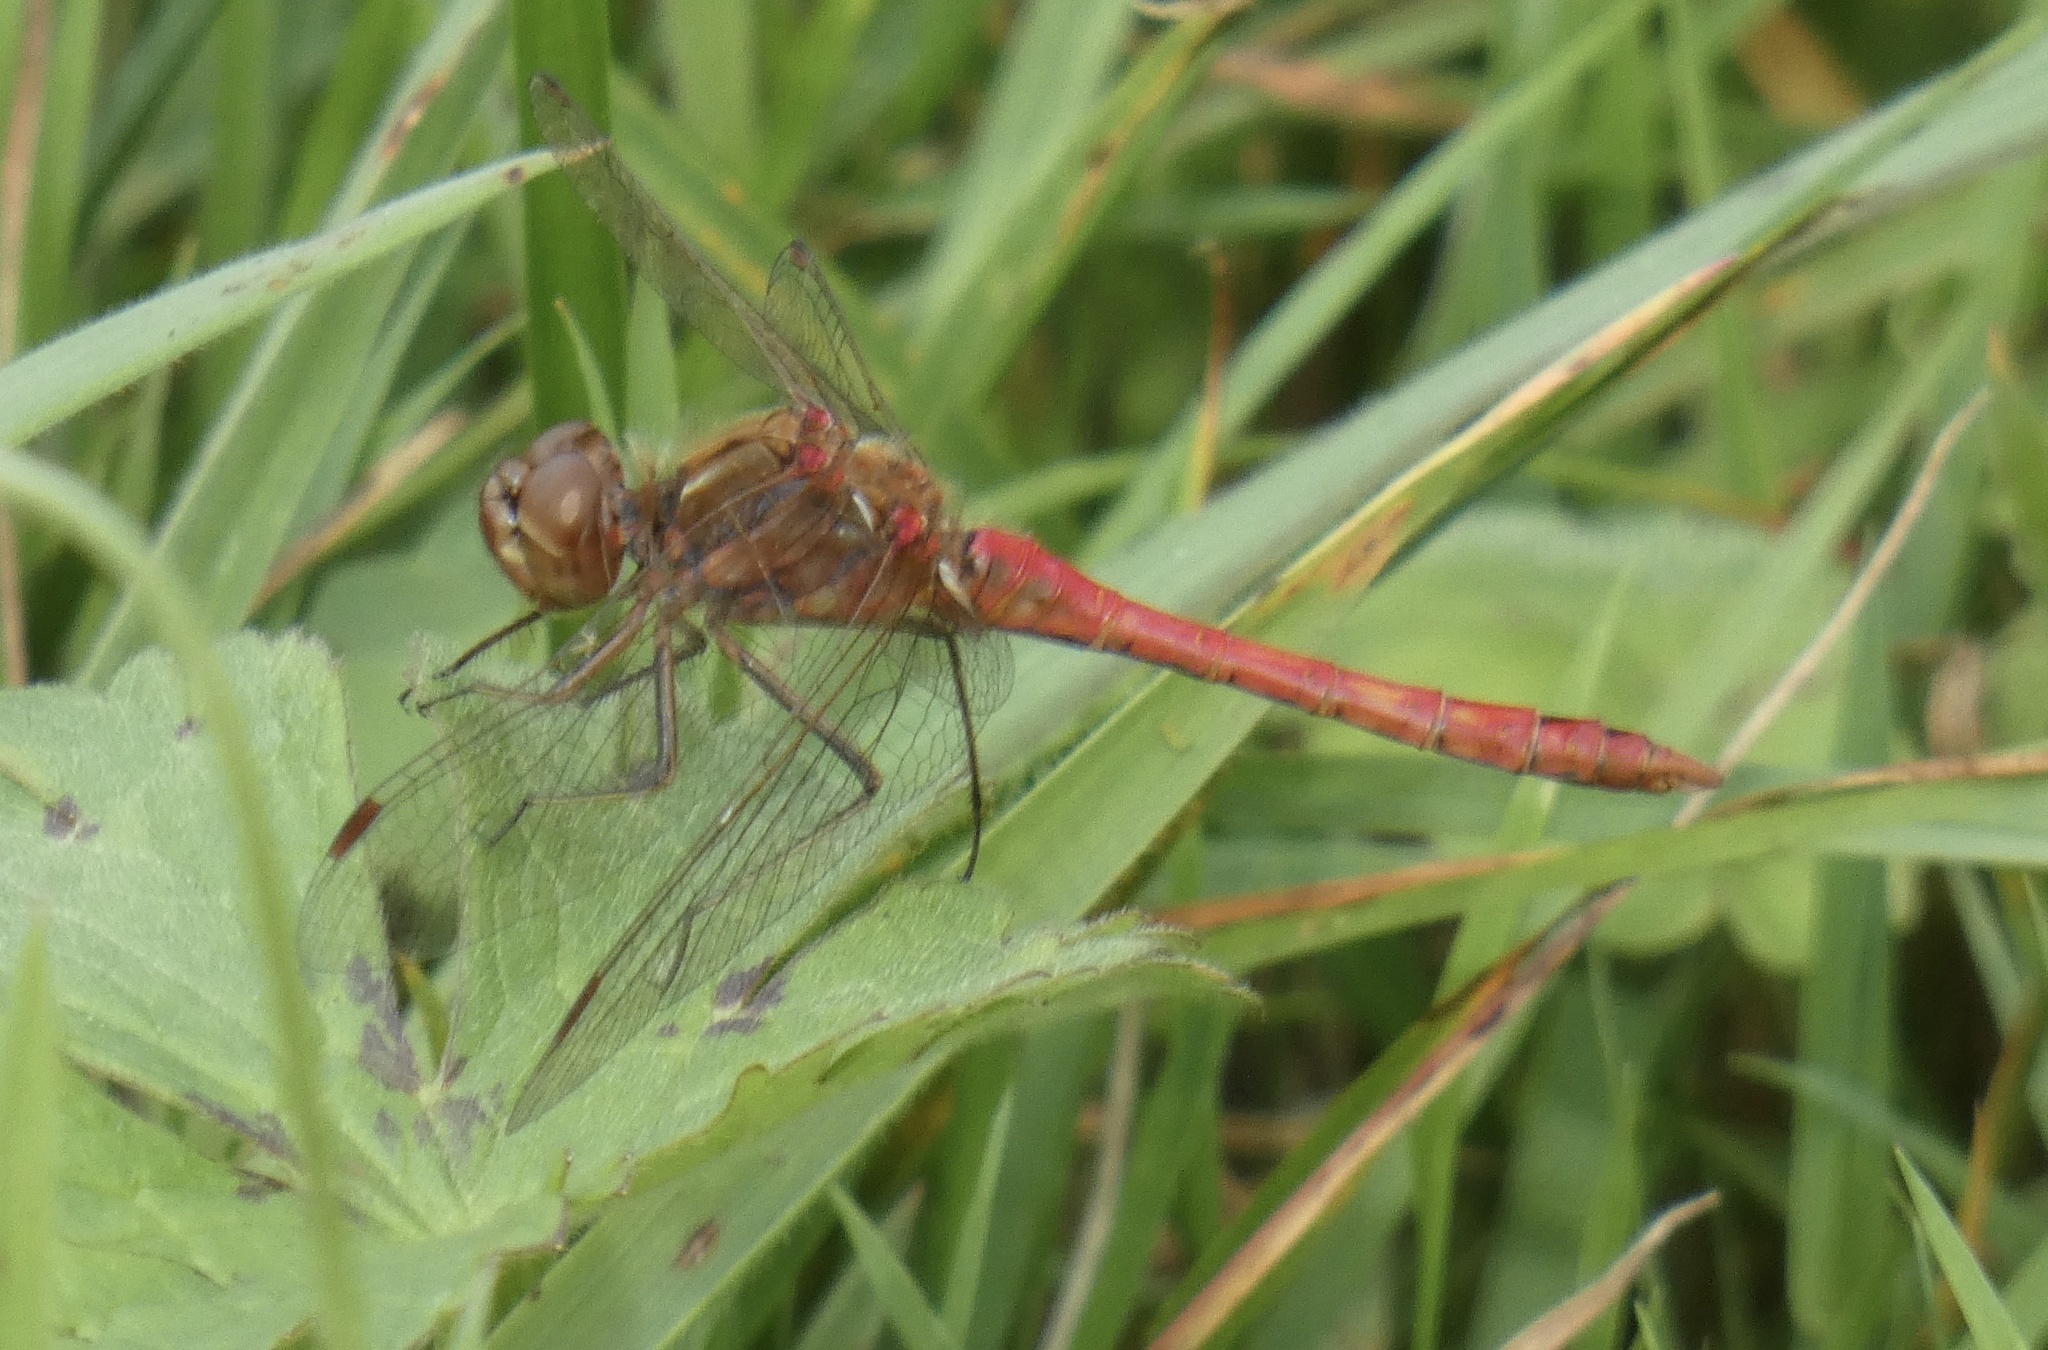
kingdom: Animalia
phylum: Arthropoda
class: Insecta
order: Odonata
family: Libellulidae
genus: Sympetrum
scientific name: Sympetrum vulgatum
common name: Vagrant darter
